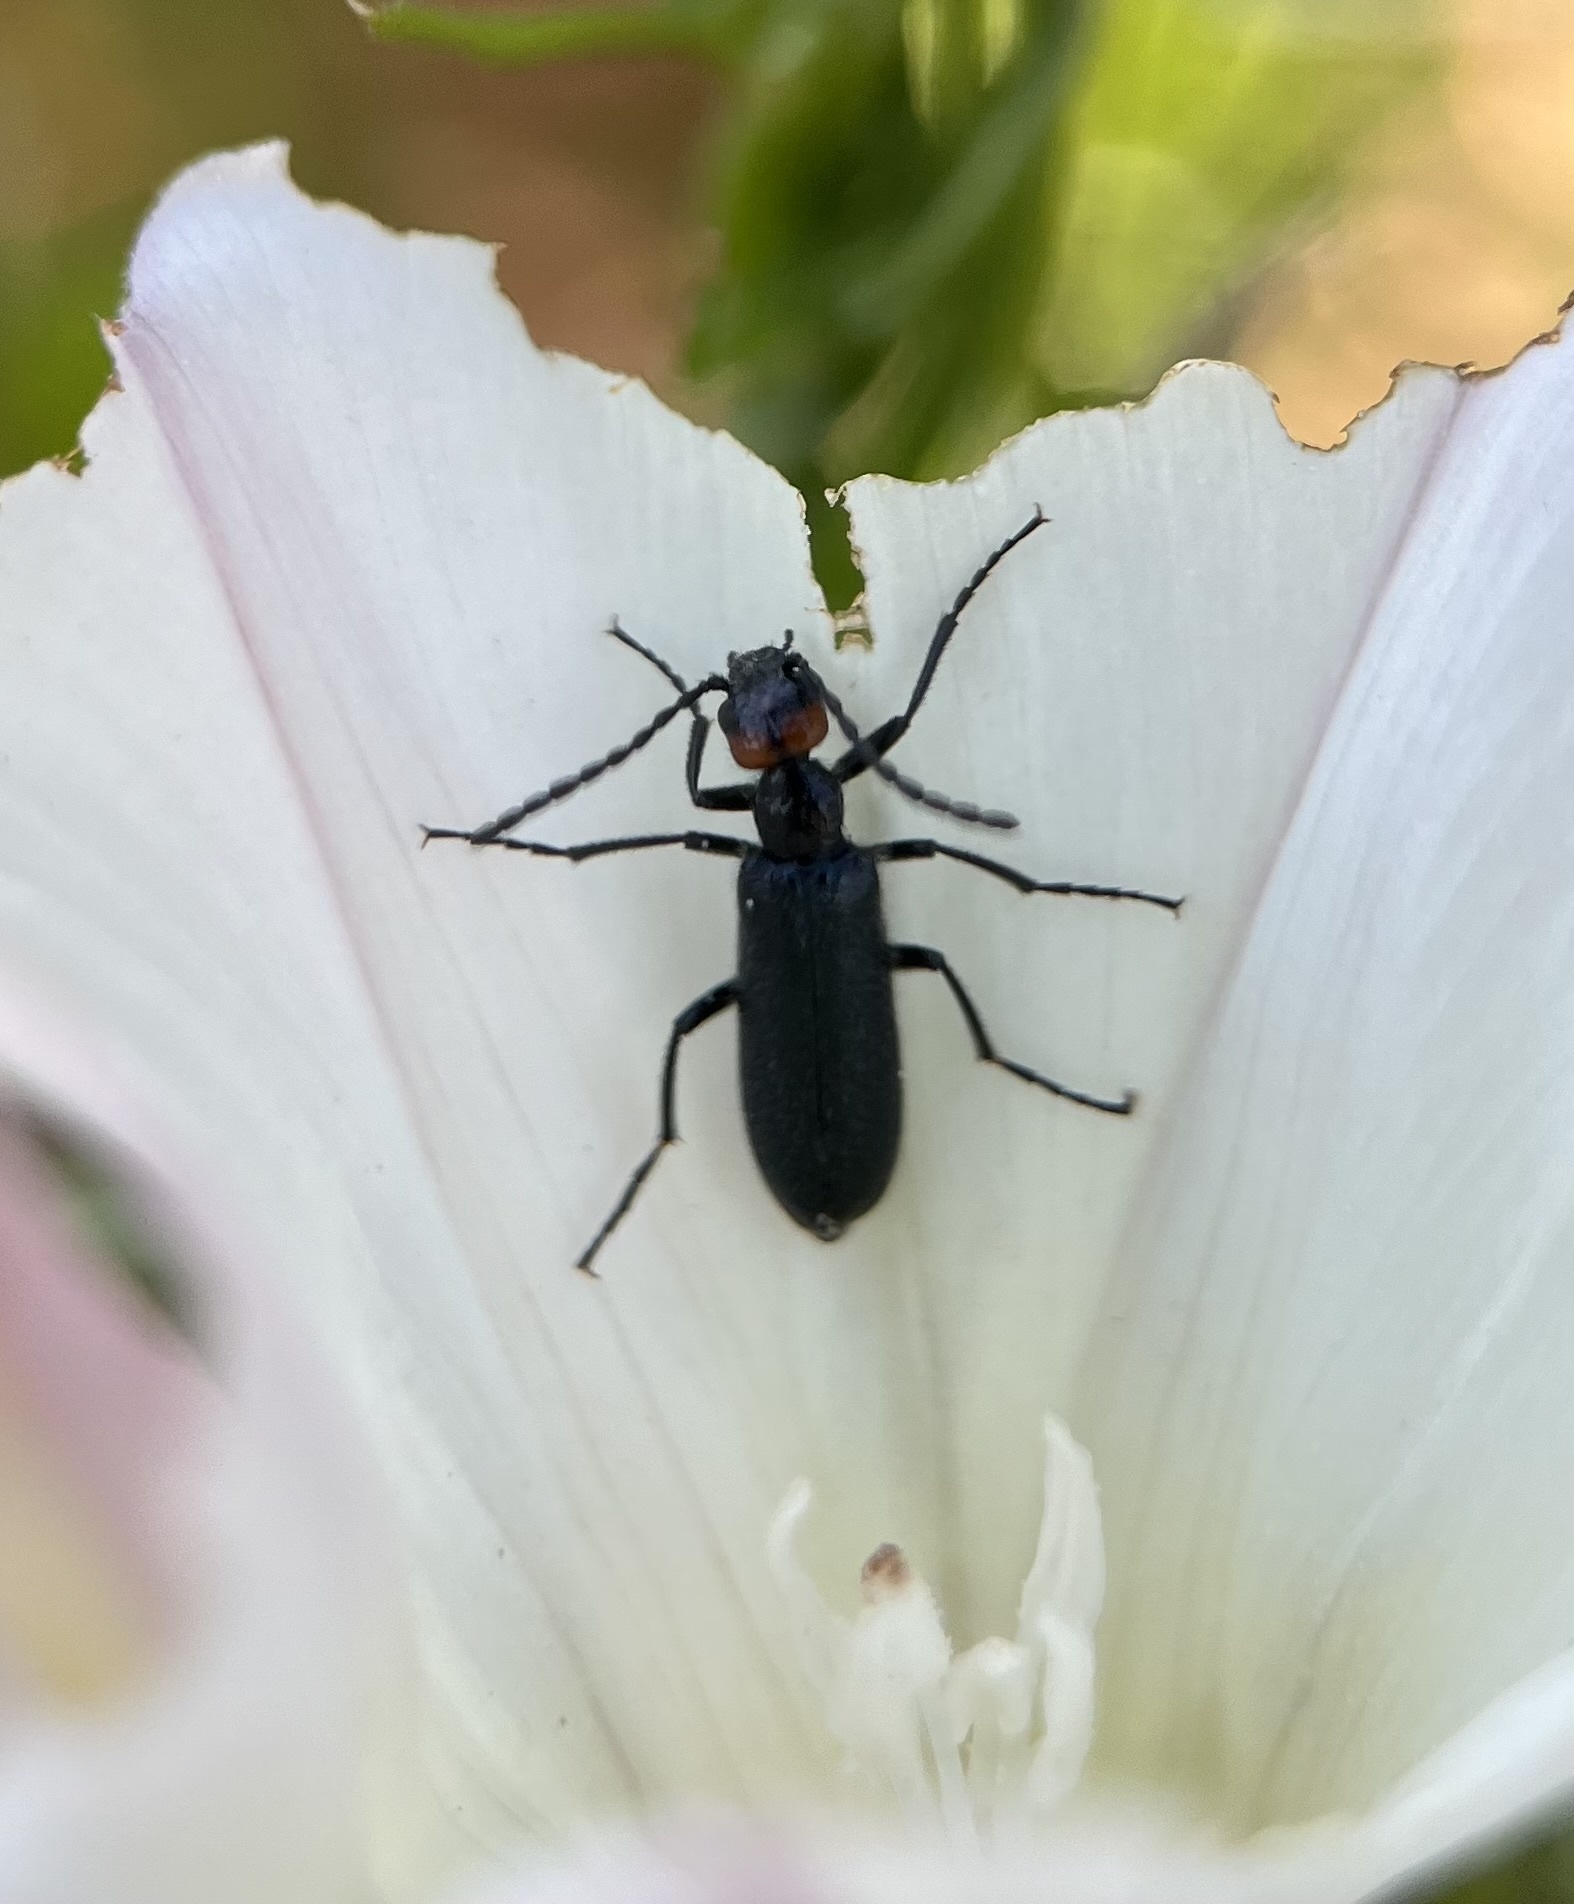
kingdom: Animalia
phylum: Arthropoda
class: Insecta
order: Coleoptera
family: Meloidae
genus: Lytta
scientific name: Lytta auriculata
